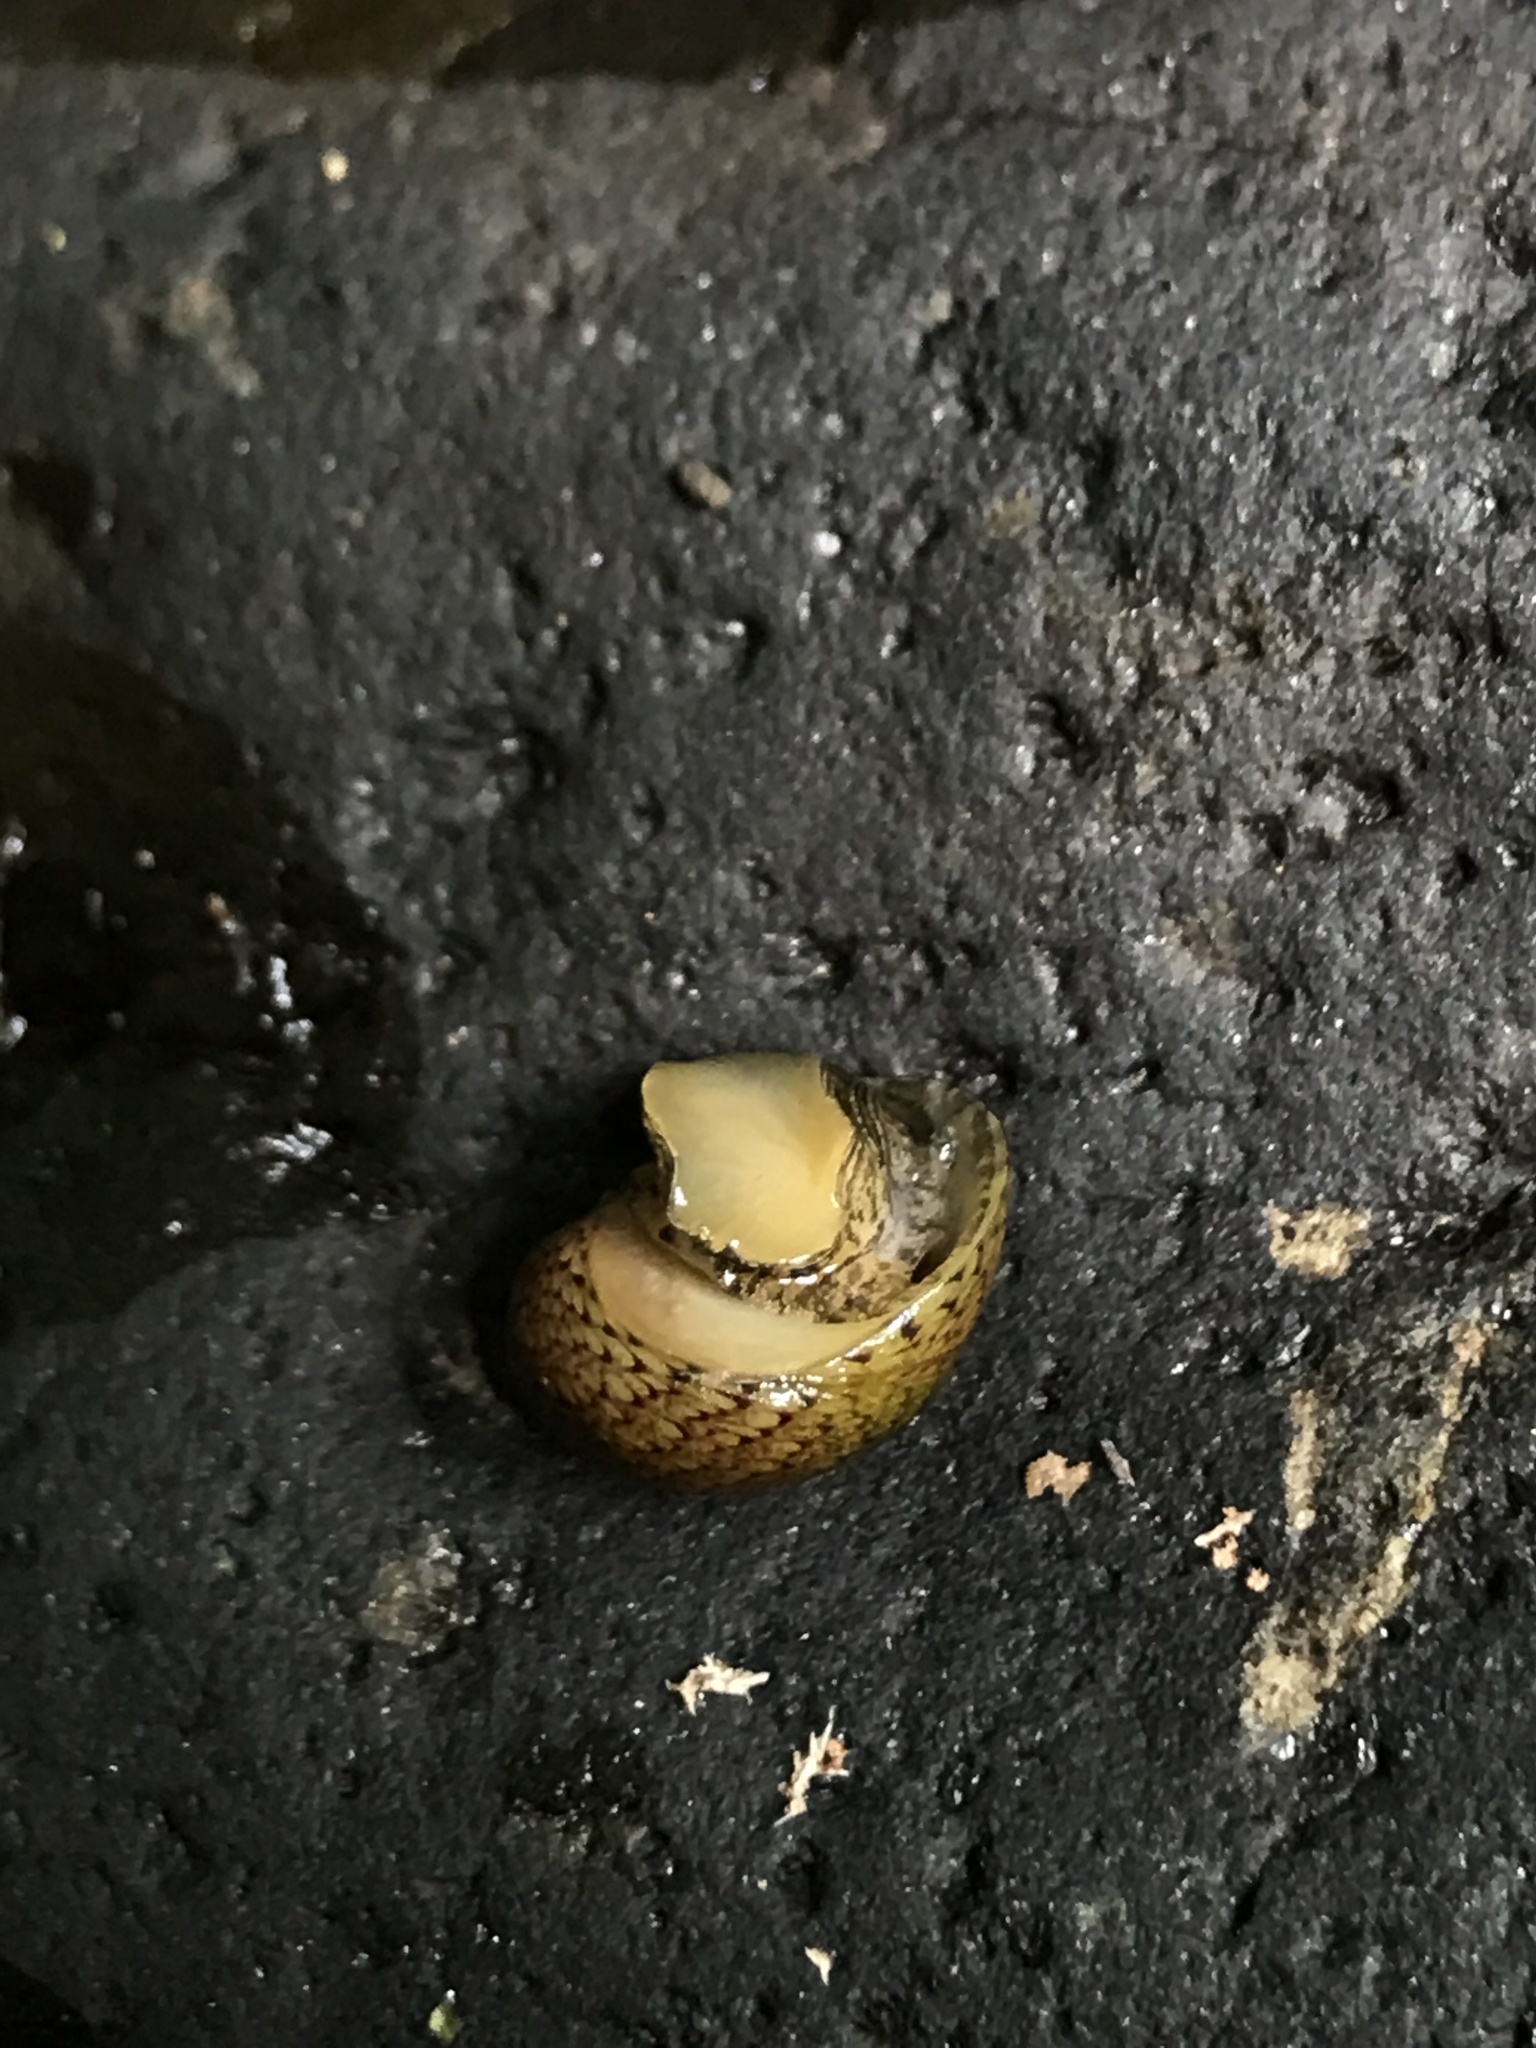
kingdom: Animalia
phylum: Mollusca
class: Gastropoda
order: Cycloneritida
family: Neritidae
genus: Vitta
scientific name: Vitta luteofasciata
